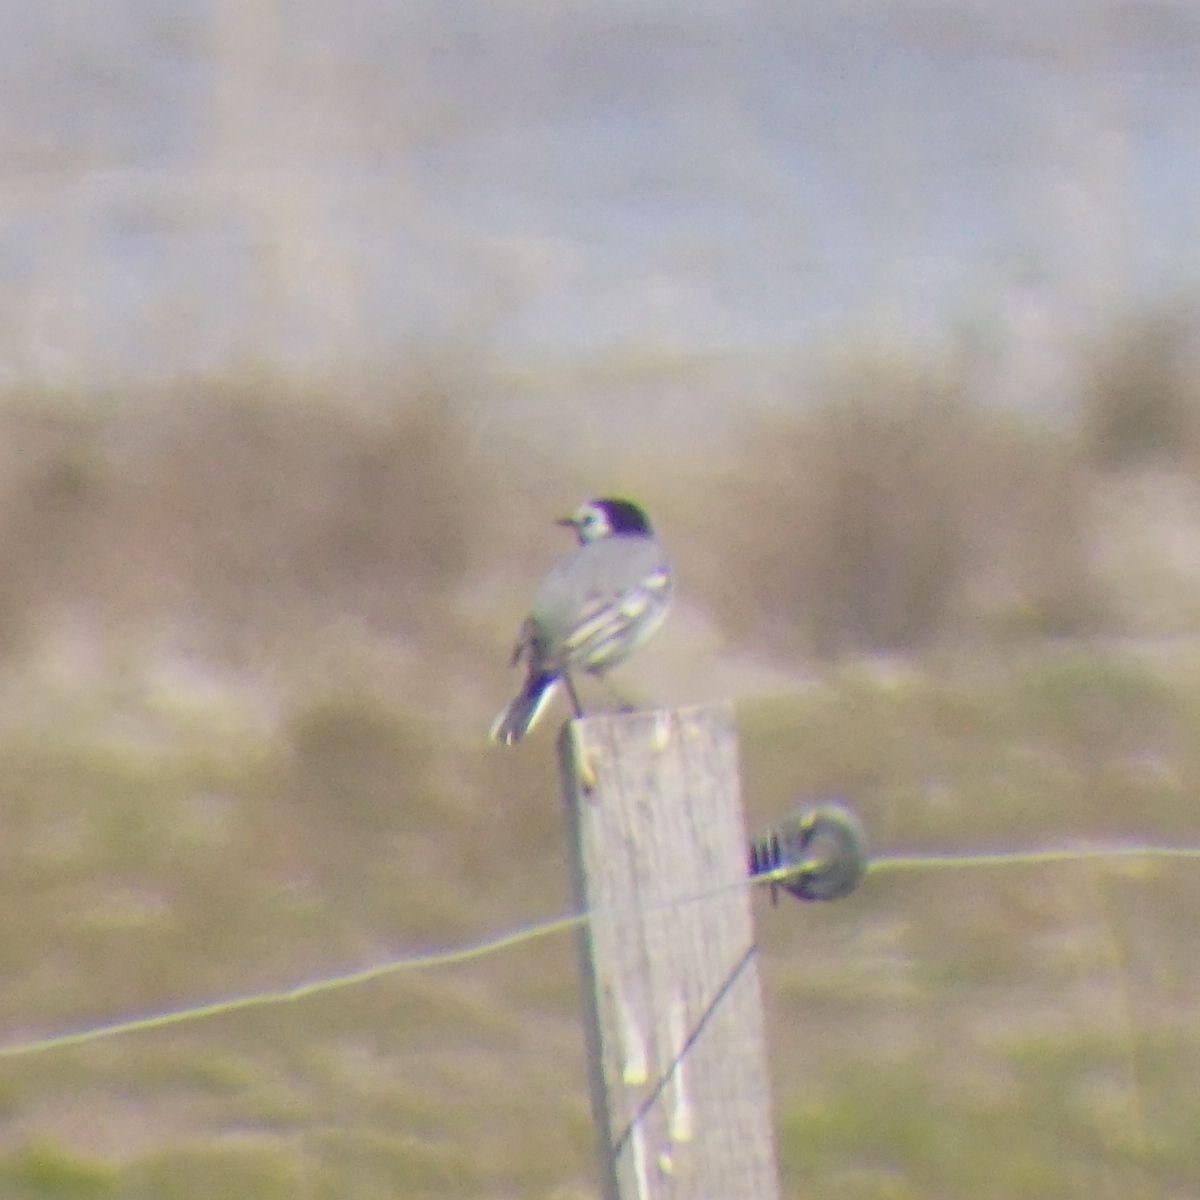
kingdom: Animalia
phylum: Chordata
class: Aves
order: Passeriformes
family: Motacillidae
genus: Motacilla
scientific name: Motacilla alba
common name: White wagtail
